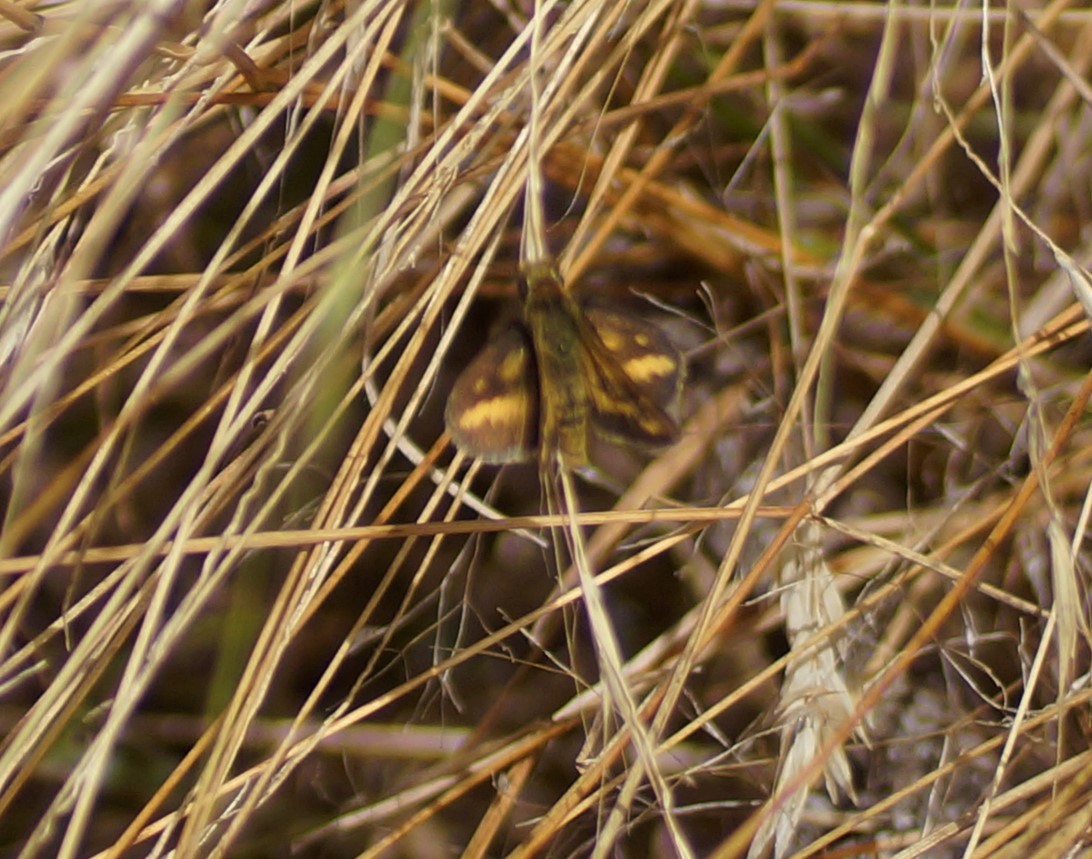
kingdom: Animalia
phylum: Arthropoda
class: Insecta
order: Lepidoptera
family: Hesperiidae
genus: Taractrocera
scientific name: Taractrocera papyria
